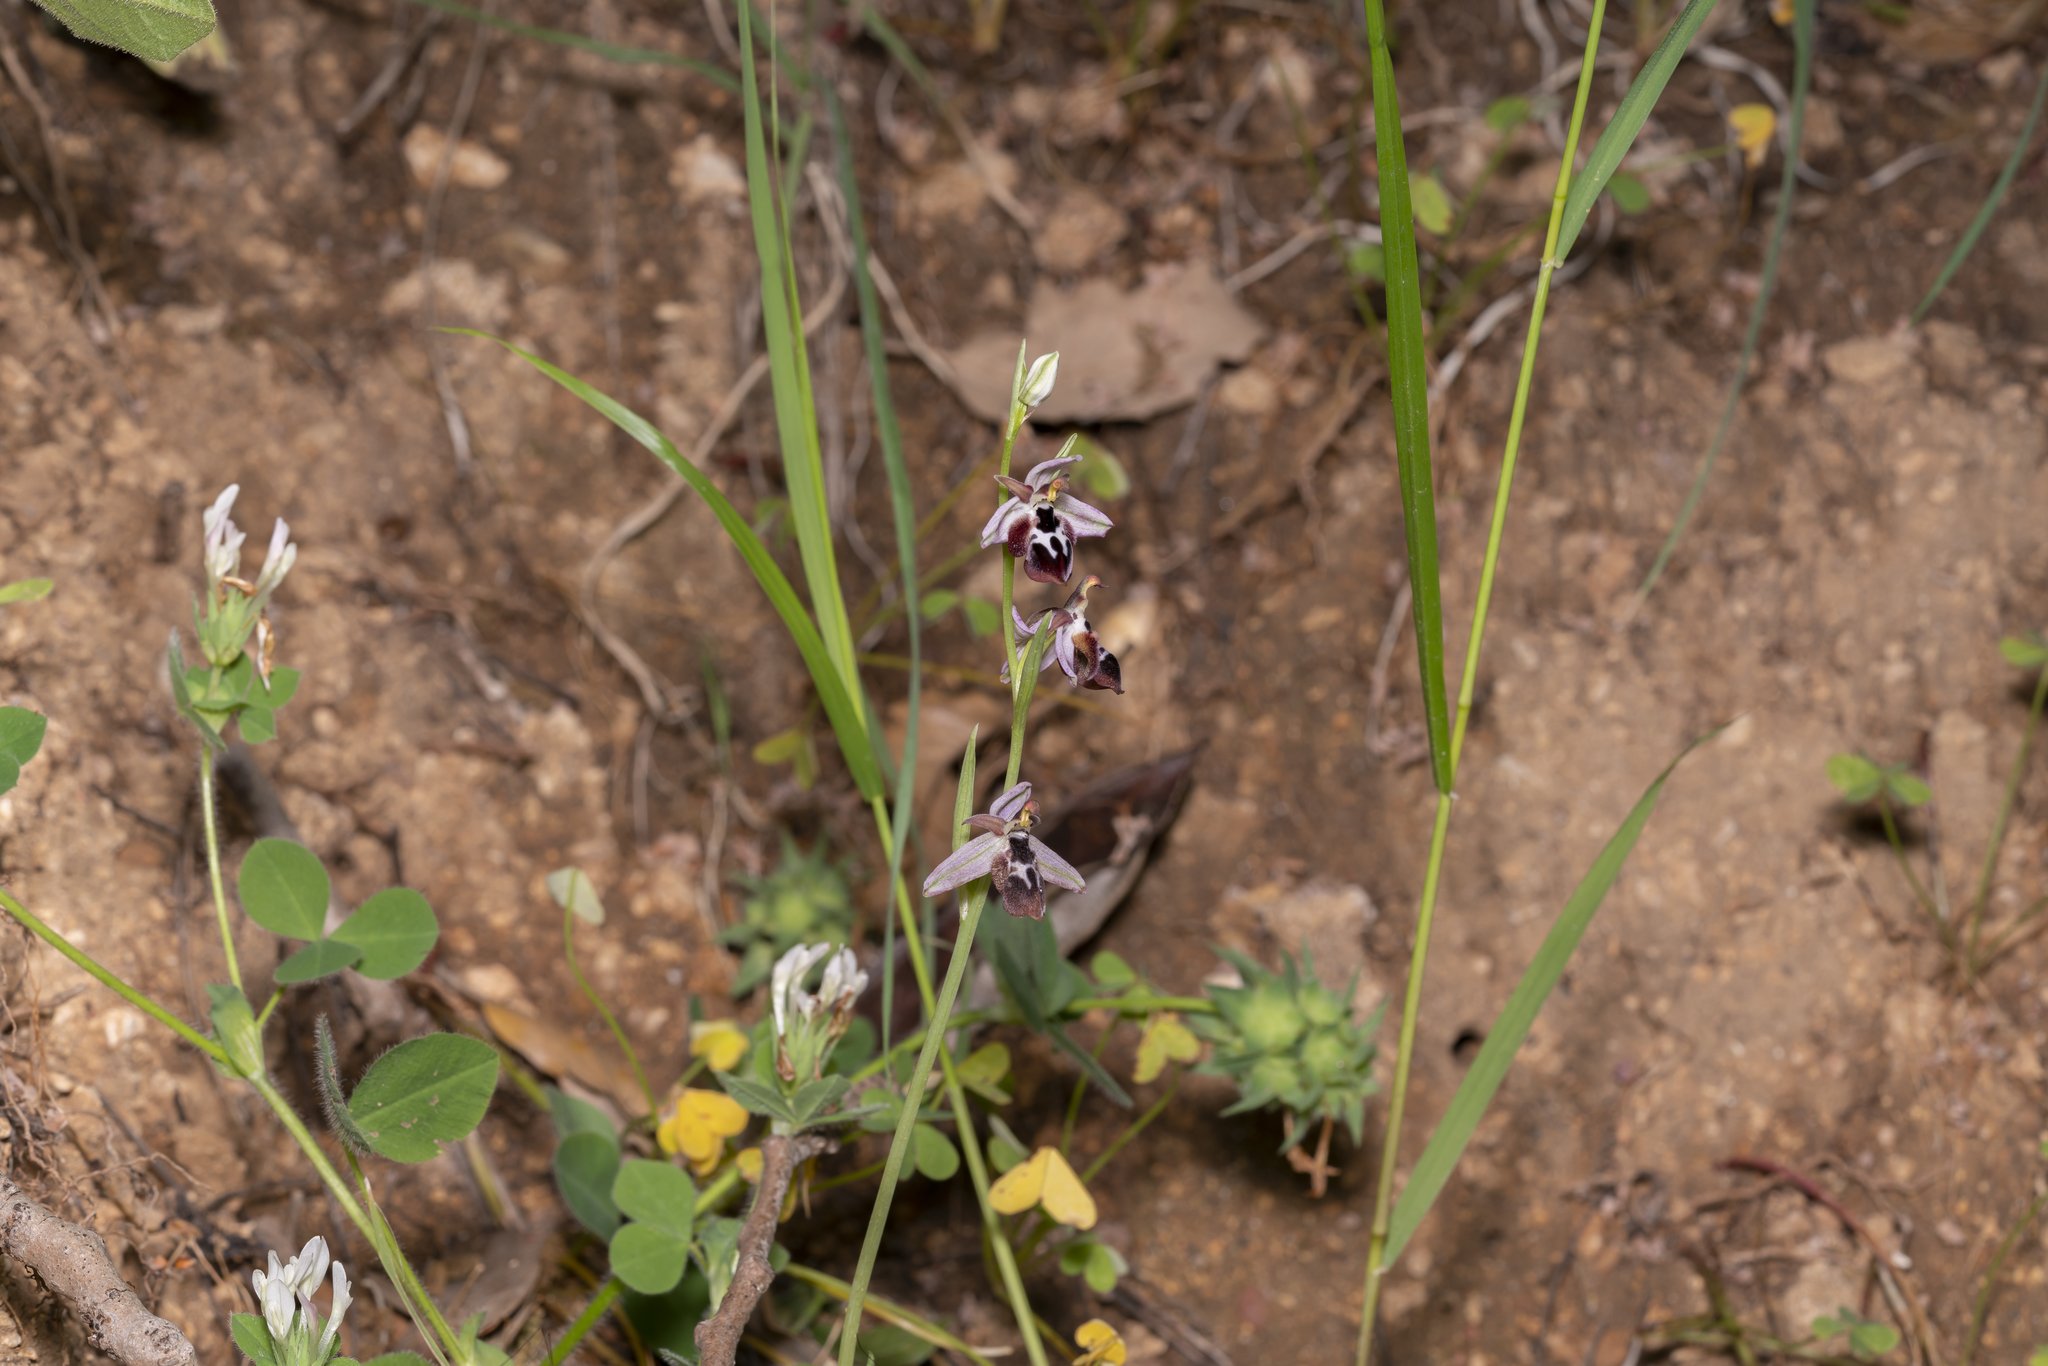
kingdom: Plantae
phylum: Tracheophyta
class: Liliopsida
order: Asparagales
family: Orchidaceae
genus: Ophrys
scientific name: Ophrys reinholdii
